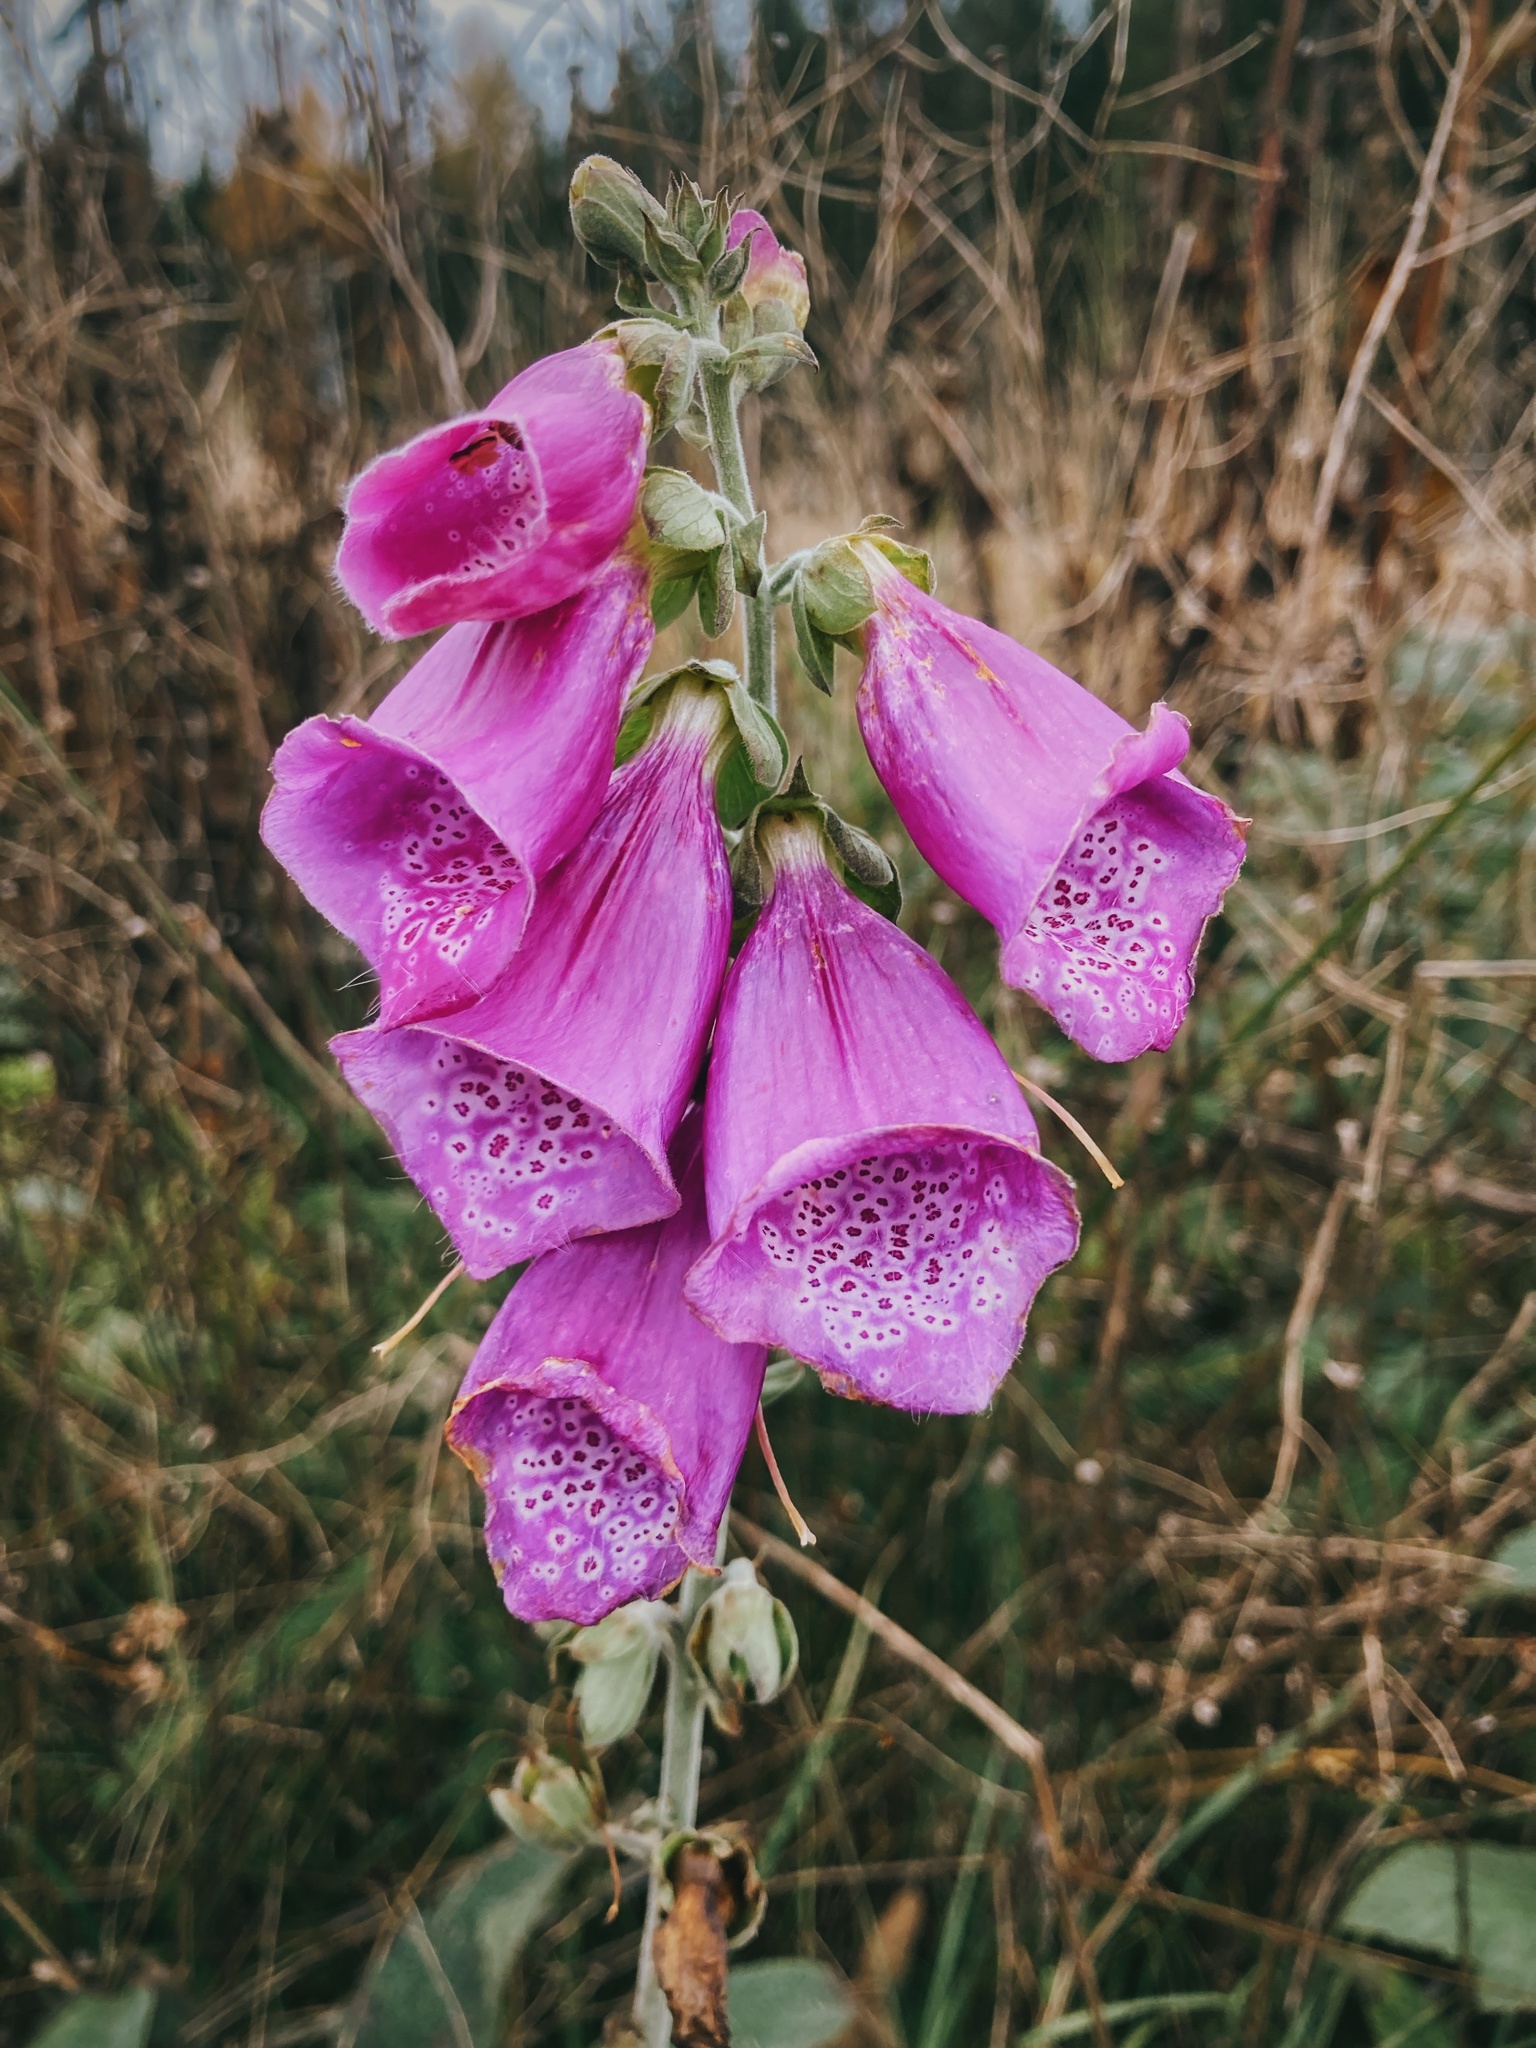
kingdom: Plantae
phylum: Tracheophyta
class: Magnoliopsida
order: Lamiales
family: Plantaginaceae
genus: Digitalis
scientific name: Digitalis purpurea
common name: Foxglove
